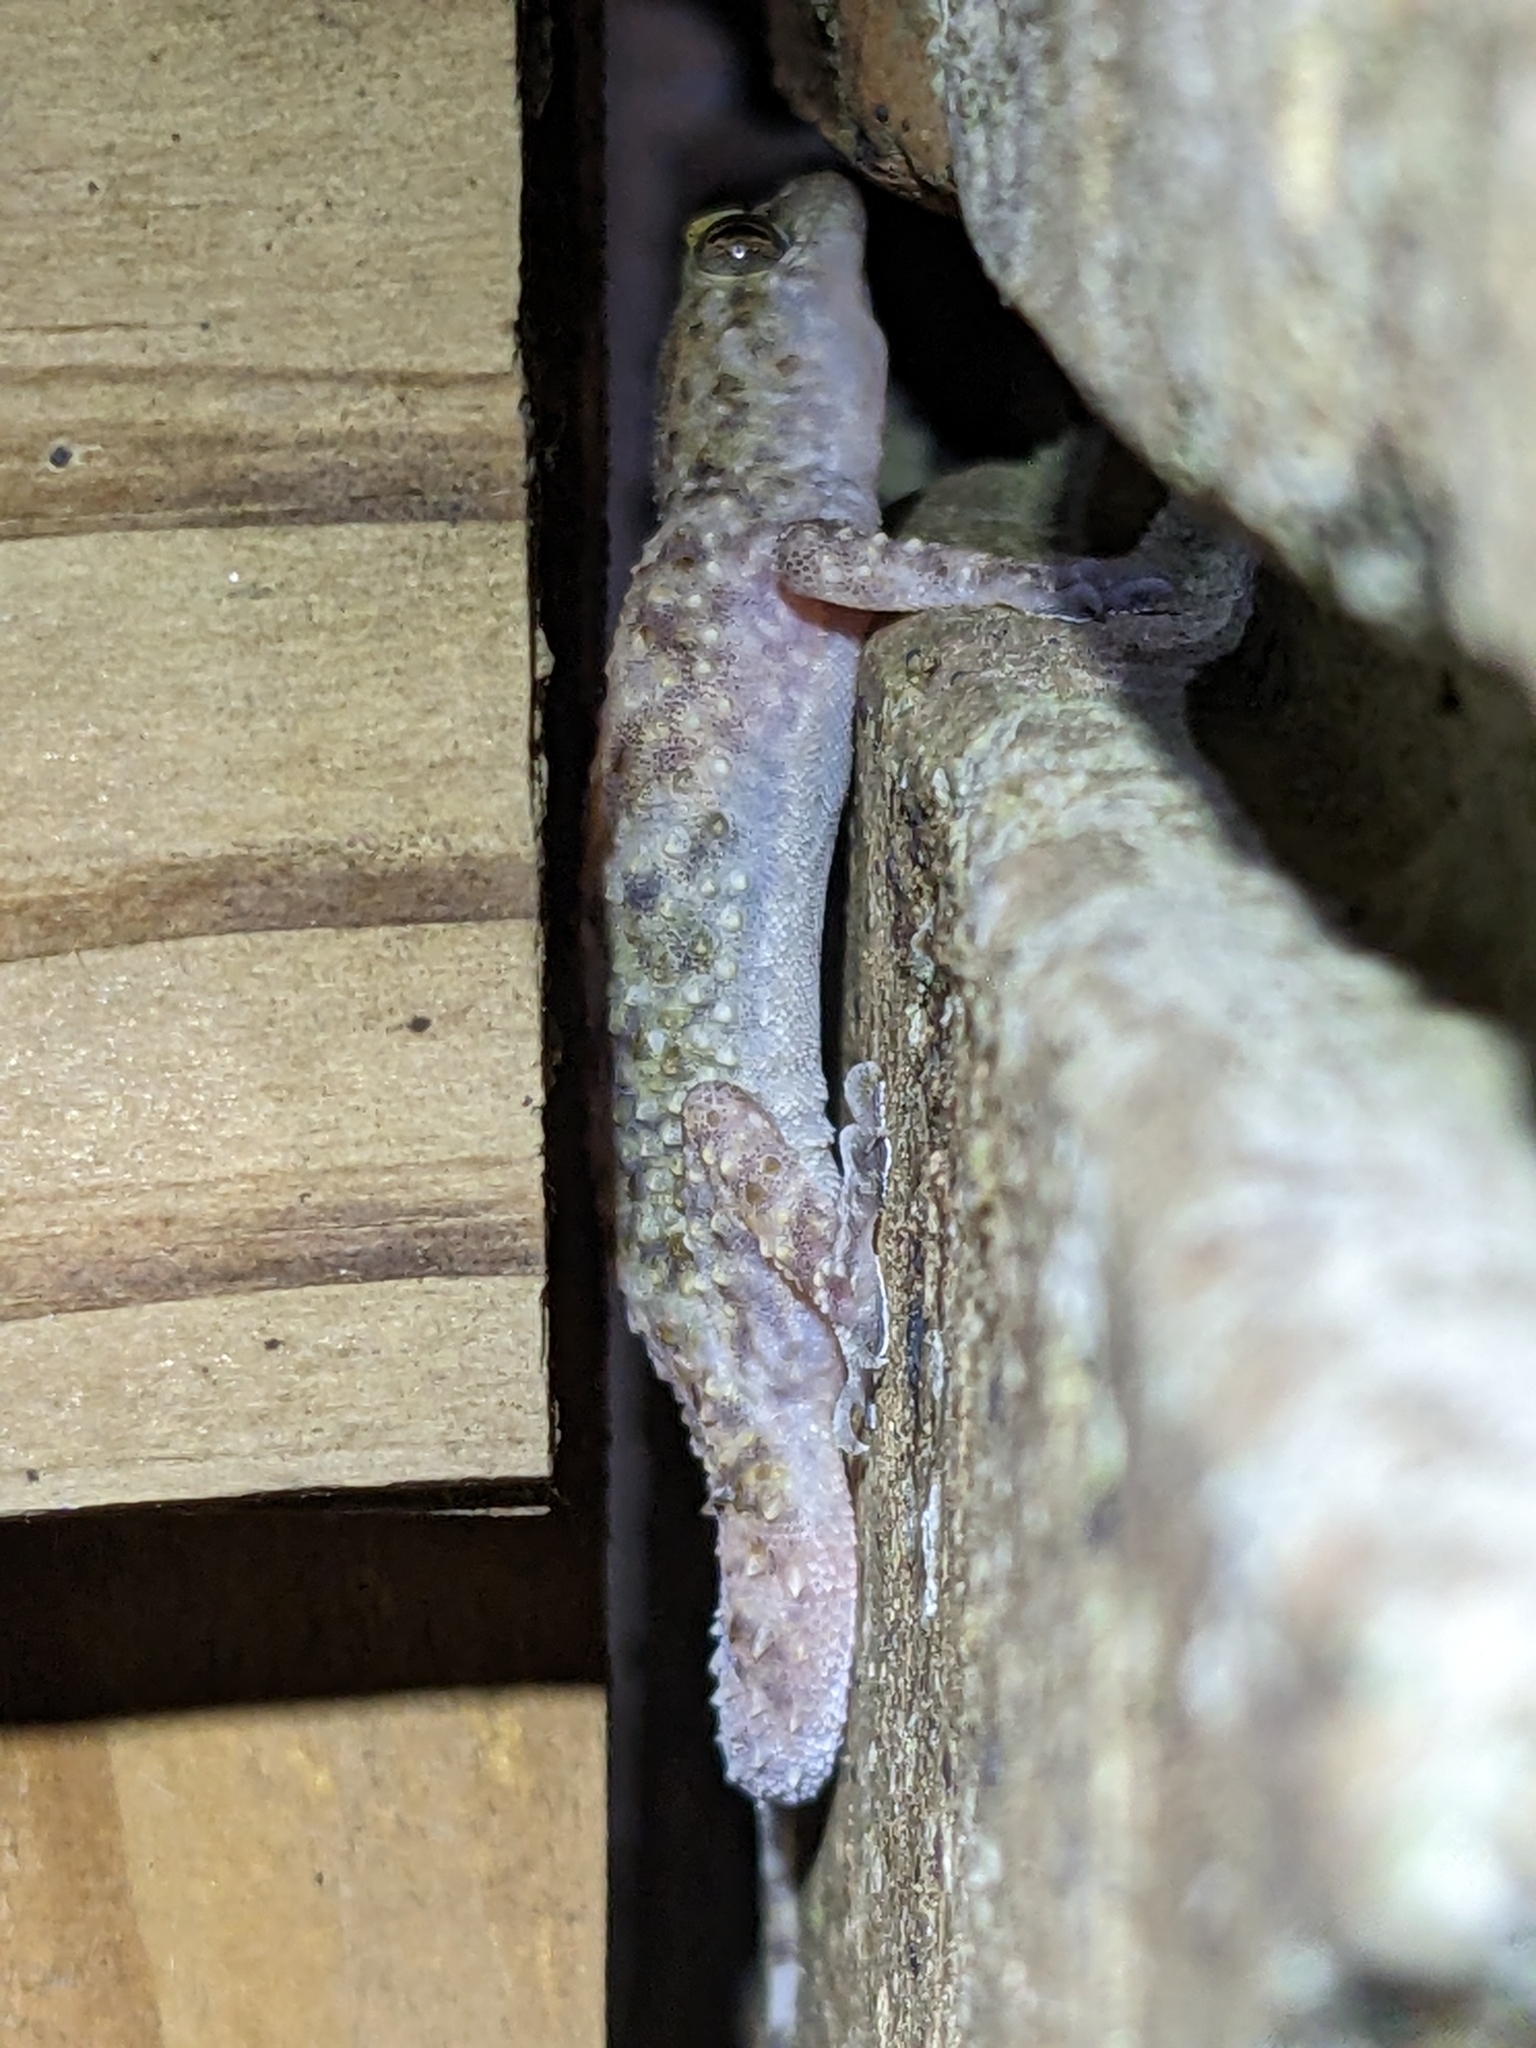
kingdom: Animalia
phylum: Chordata
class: Squamata
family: Gekkonidae
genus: Hemidactylus
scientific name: Hemidactylus turcicus
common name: Turkish gecko
